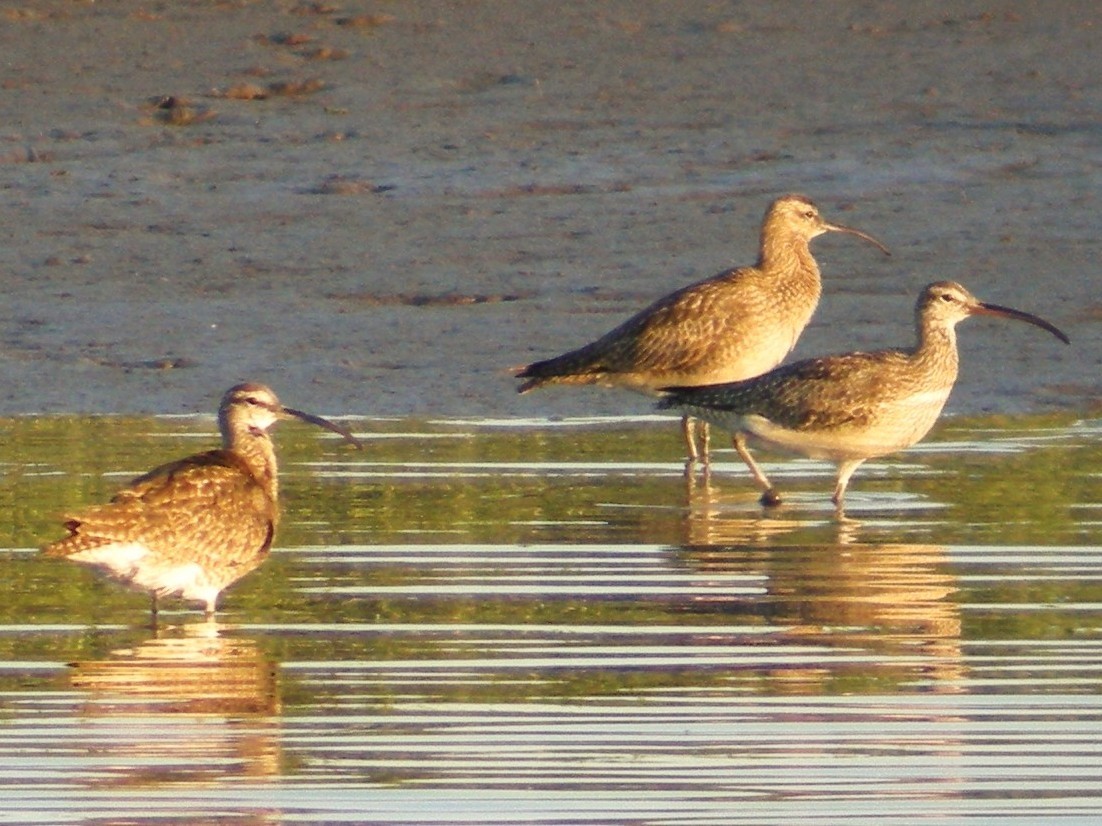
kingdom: Animalia
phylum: Chordata
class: Aves
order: Charadriiformes
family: Scolopacidae
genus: Numenius
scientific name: Numenius phaeopus
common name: Whimbrel
